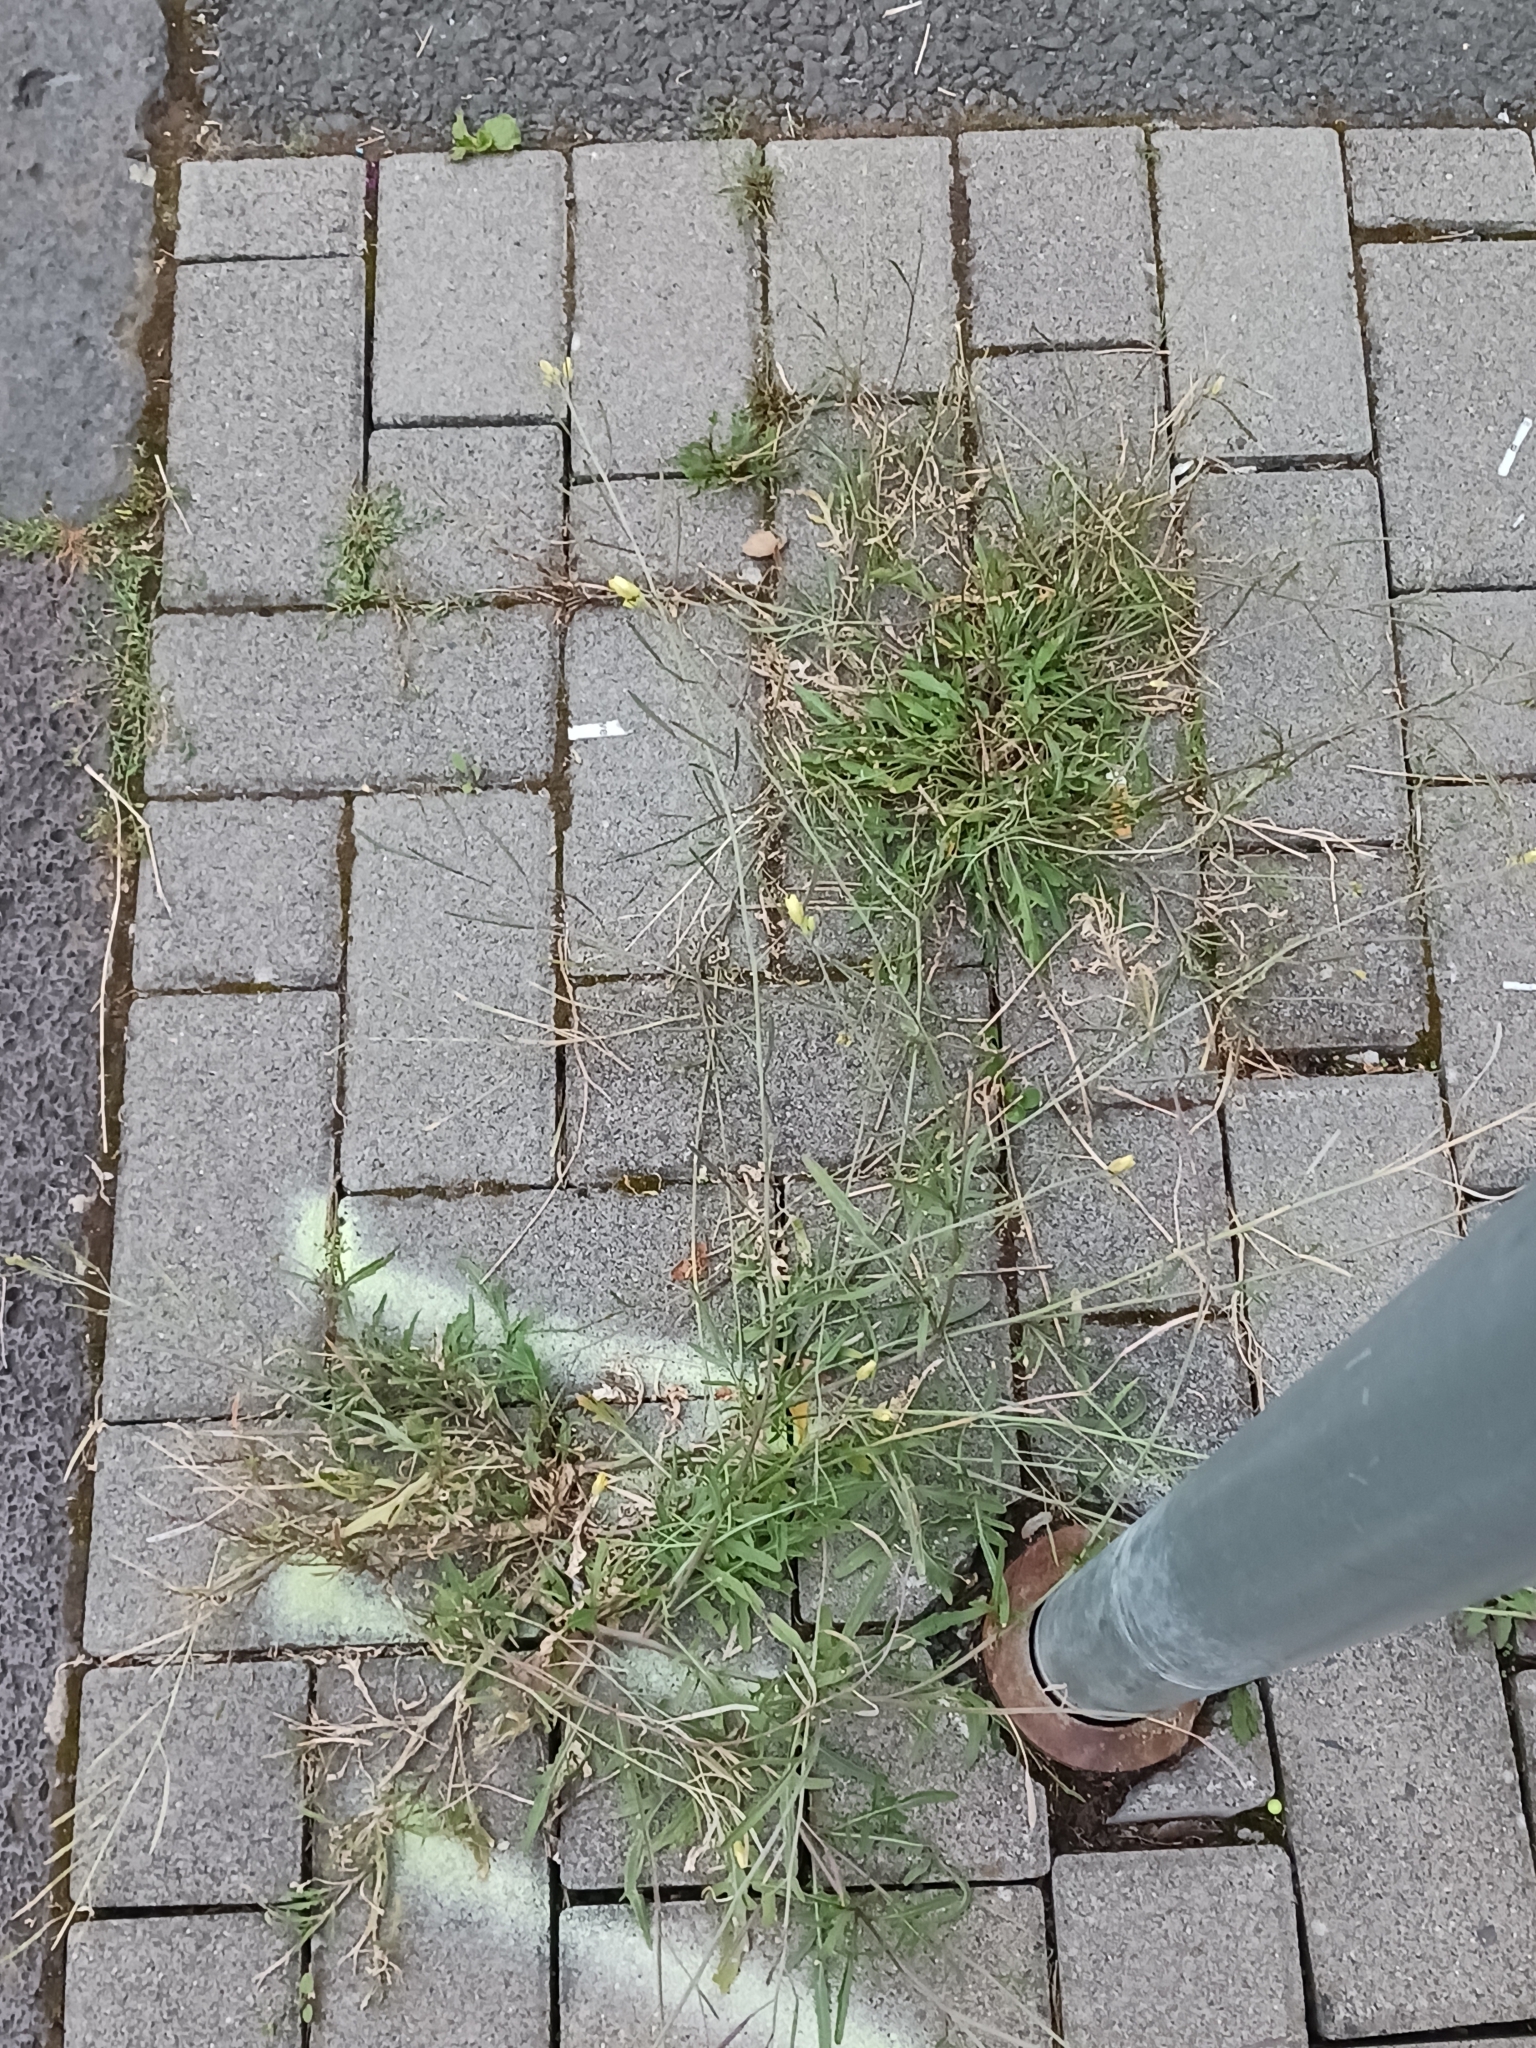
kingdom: Plantae
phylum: Tracheophyta
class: Magnoliopsida
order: Brassicales
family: Brassicaceae
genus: Diplotaxis
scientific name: Diplotaxis tenuifolia
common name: Perennial wall-rocket
